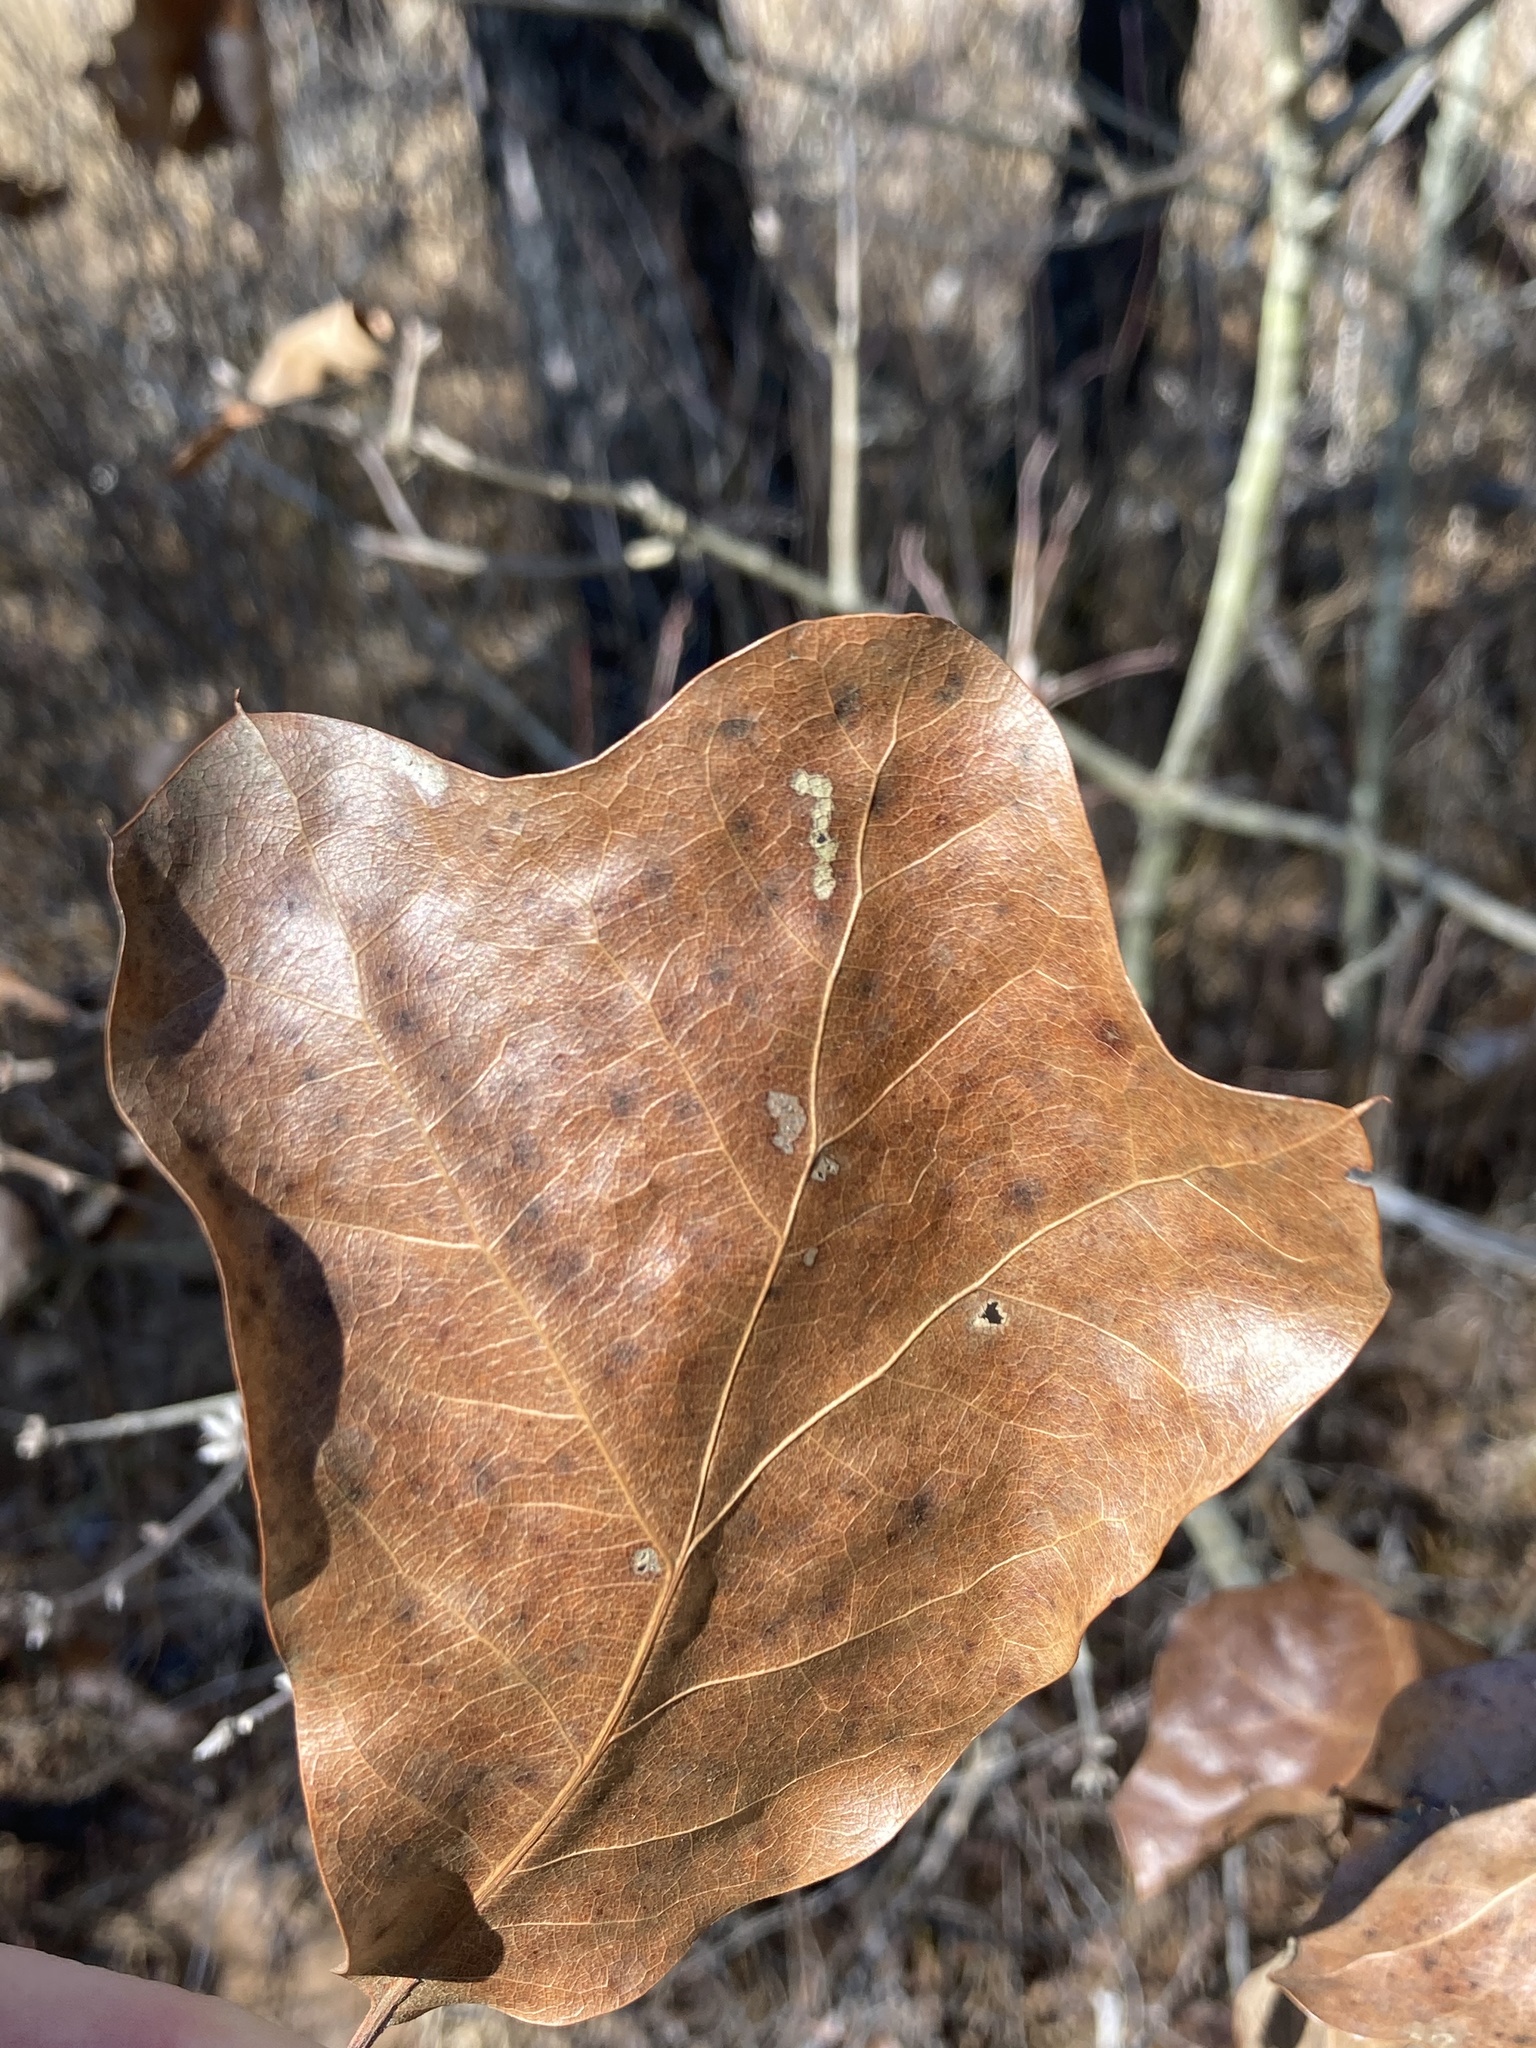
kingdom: Plantae
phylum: Tracheophyta
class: Magnoliopsida
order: Fagales
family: Fagaceae
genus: Quercus
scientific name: Quercus marilandica
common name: Blackjack oak
